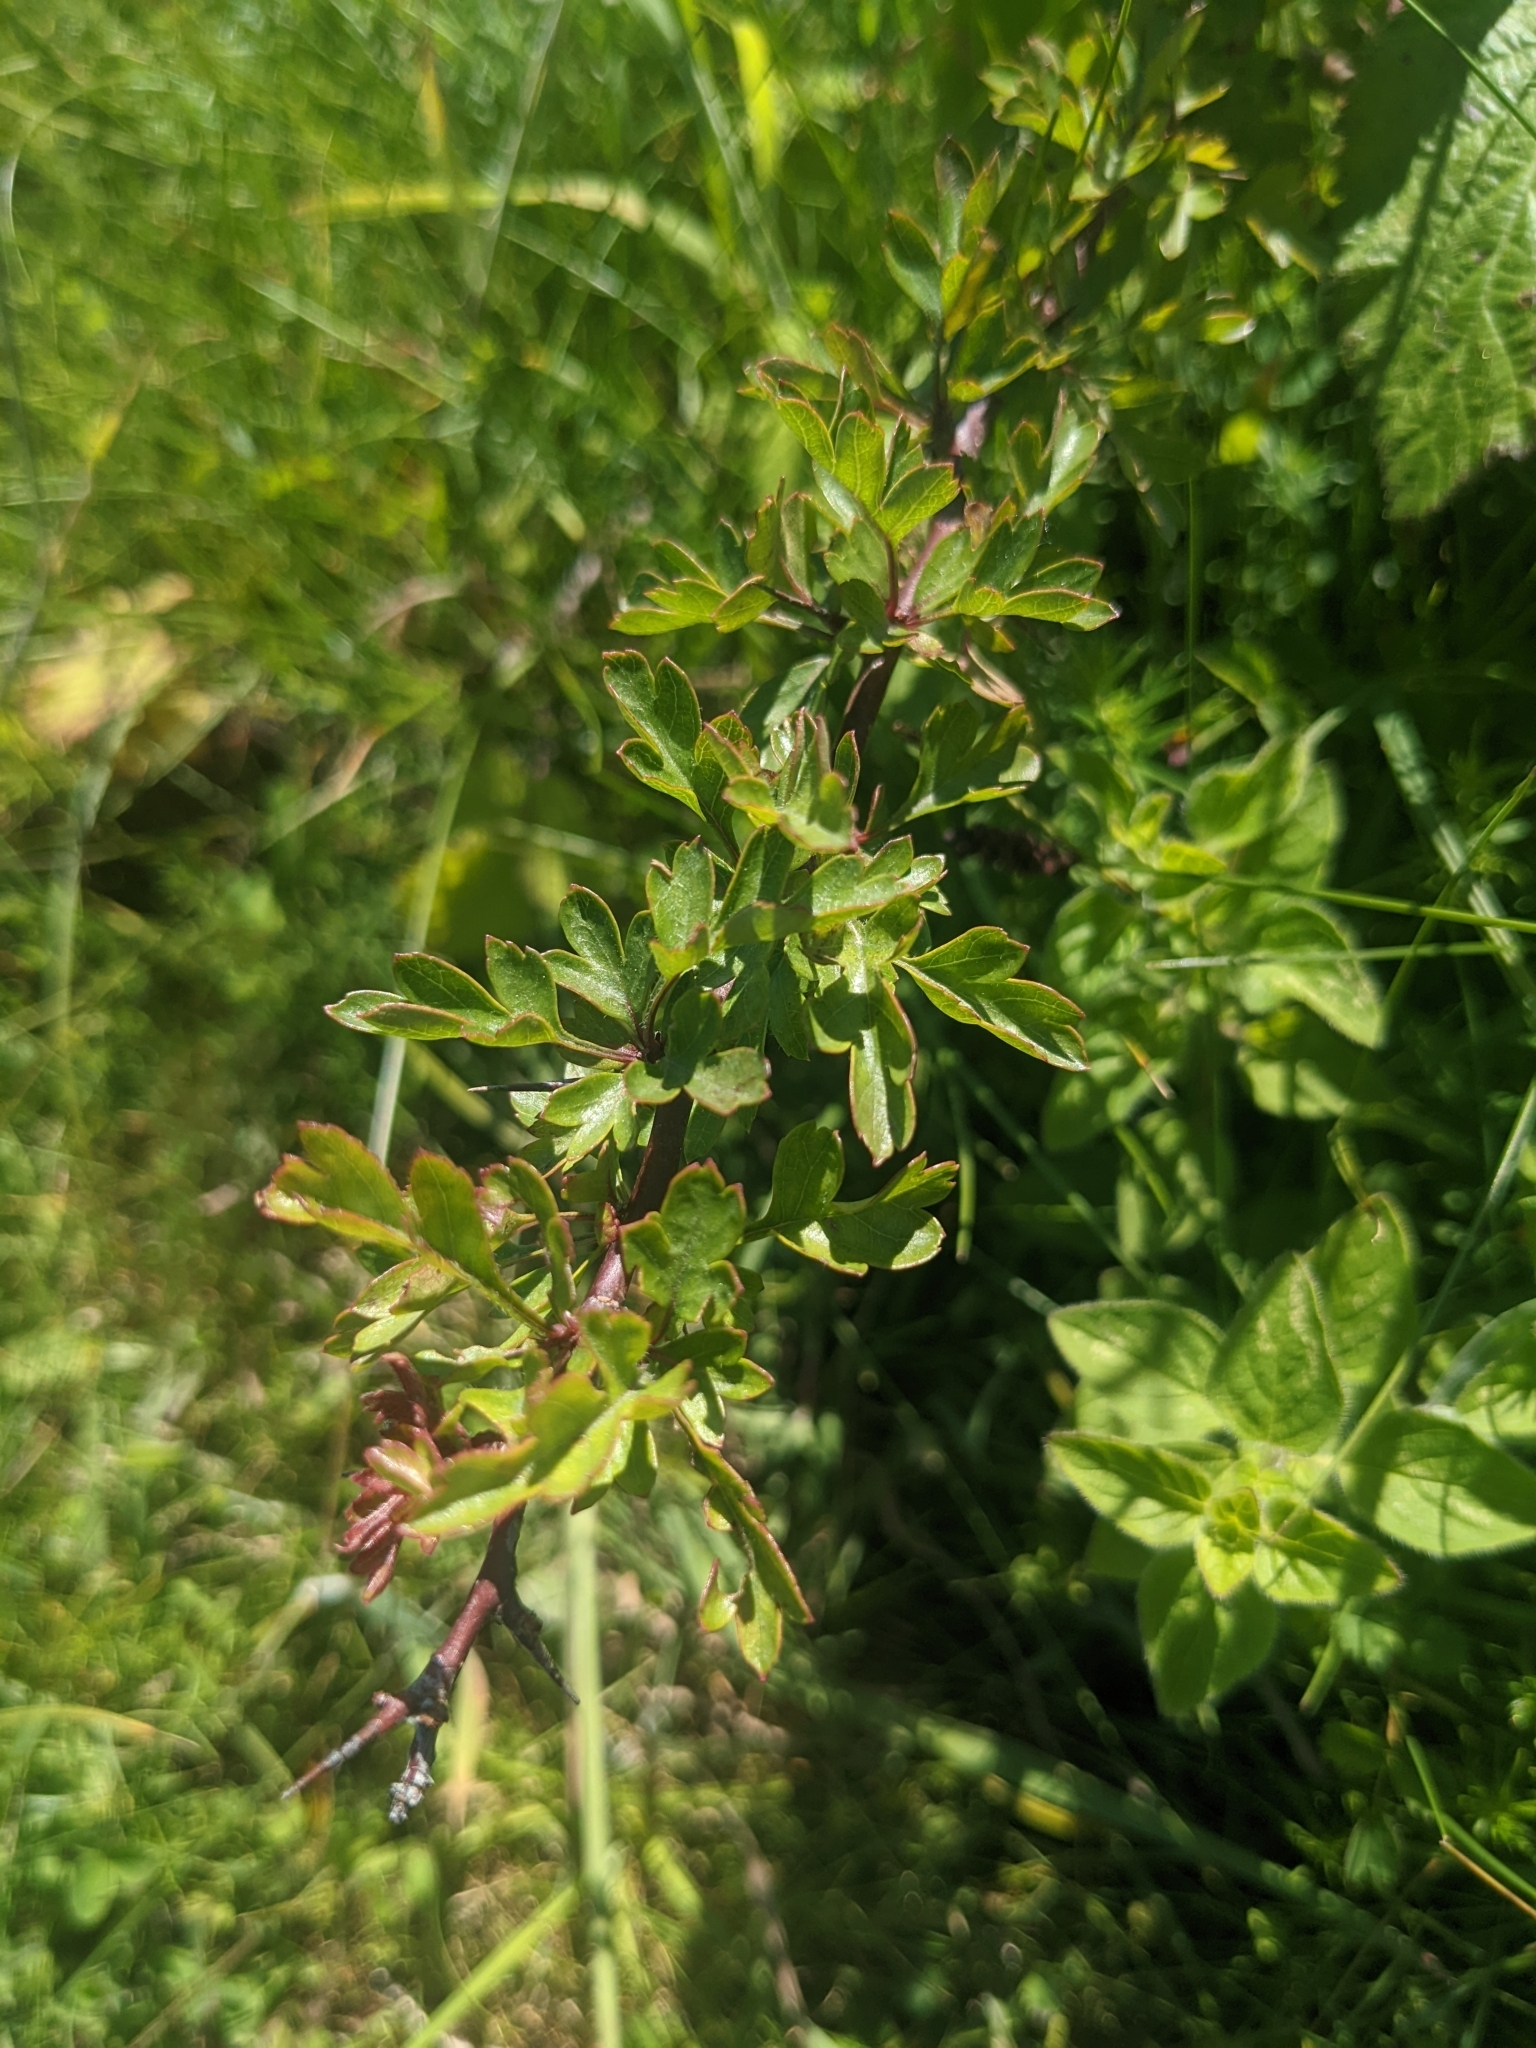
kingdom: Plantae
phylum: Tracheophyta
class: Magnoliopsida
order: Rosales
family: Rosaceae
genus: Crataegus
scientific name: Crataegus monogyna
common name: Hawthorn
